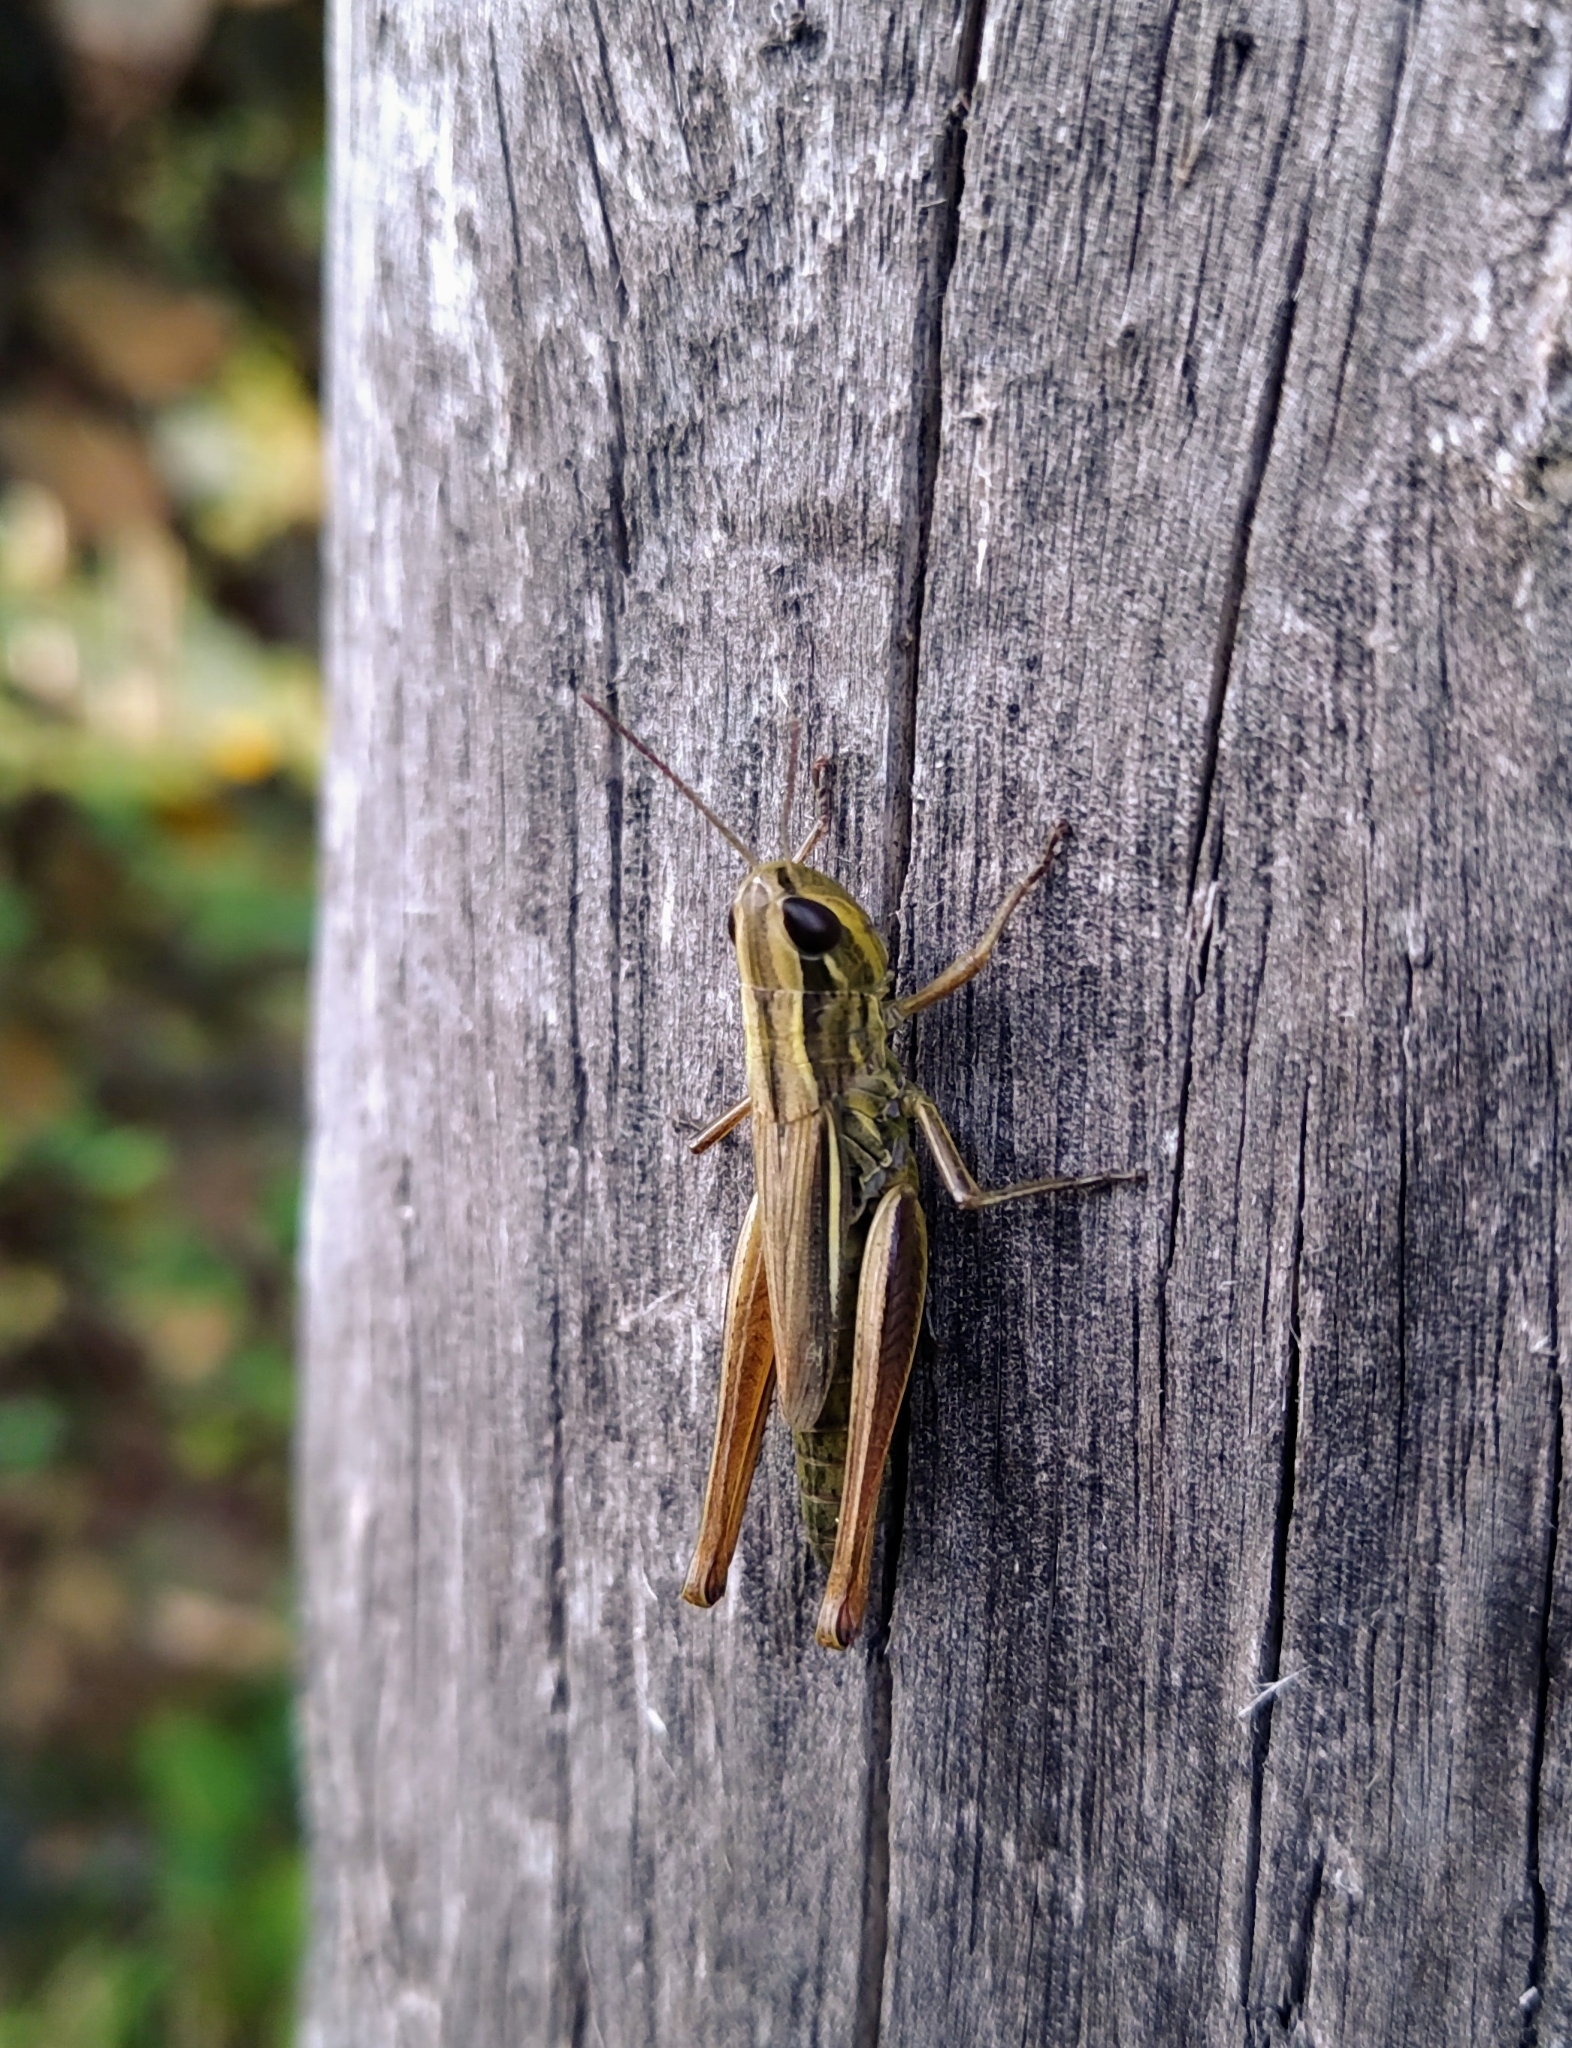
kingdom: Animalia
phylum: Arthropoda
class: Insecta
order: Orthoptera
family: Acrididae
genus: Euchorthippus
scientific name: Euchorthippus declivus
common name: Common straw grasshopper
